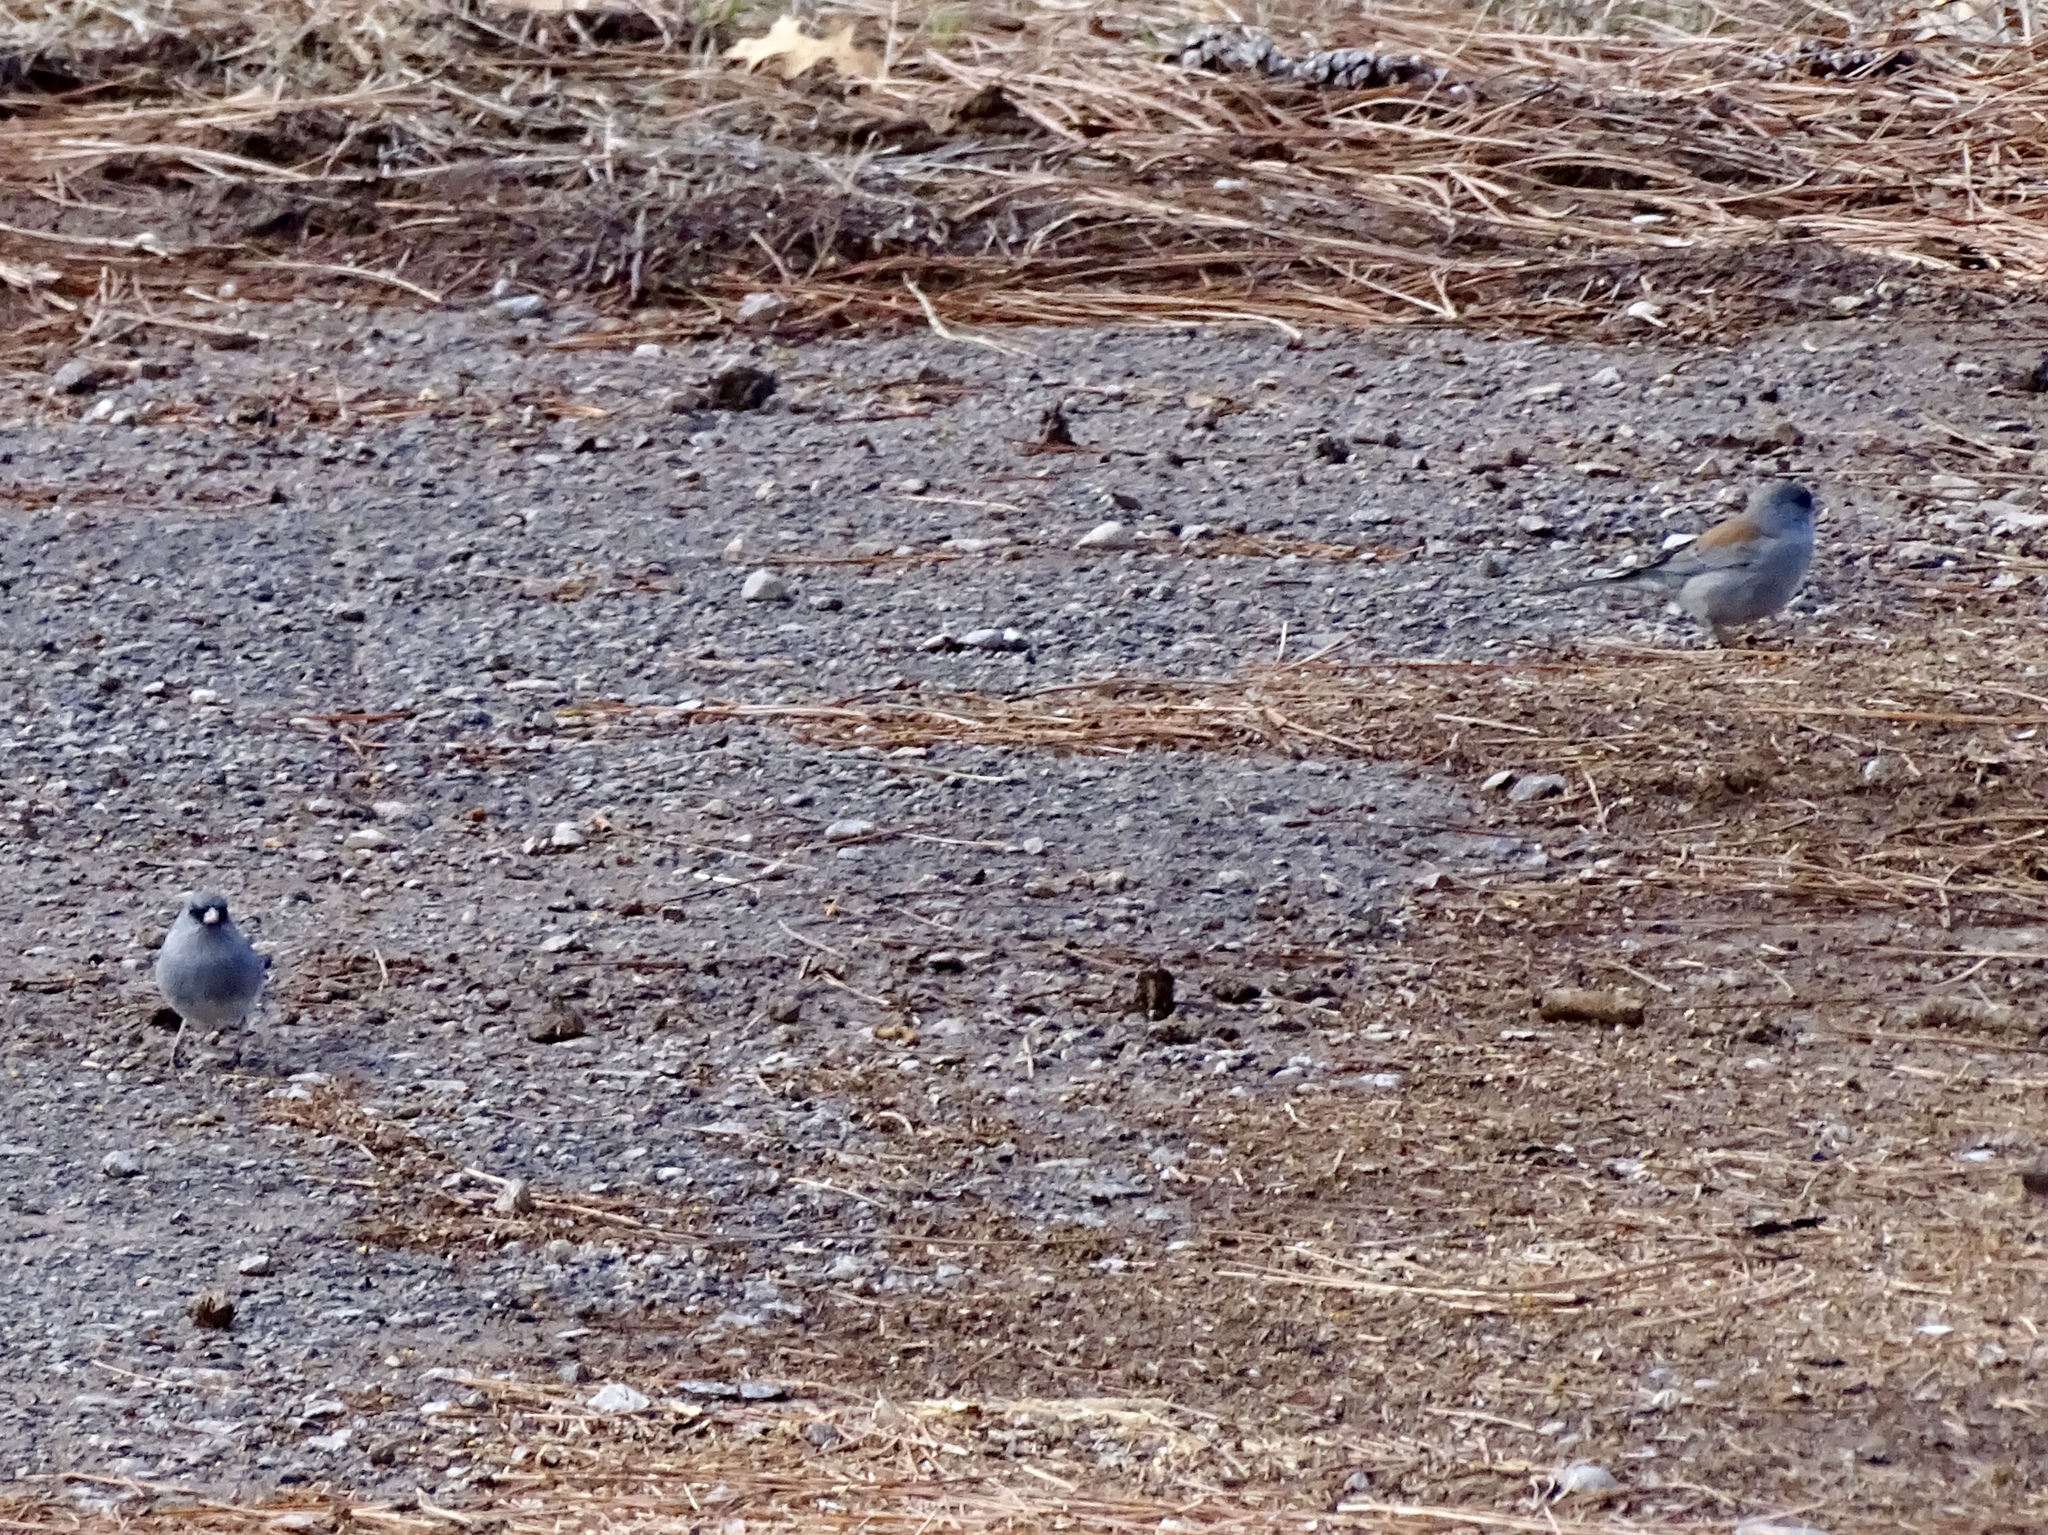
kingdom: Animalia
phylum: Chordata
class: Aves
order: Passeriformes
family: Passerellidae
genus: Junco
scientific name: Junco hyemalis
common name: Dark-eyed junco
